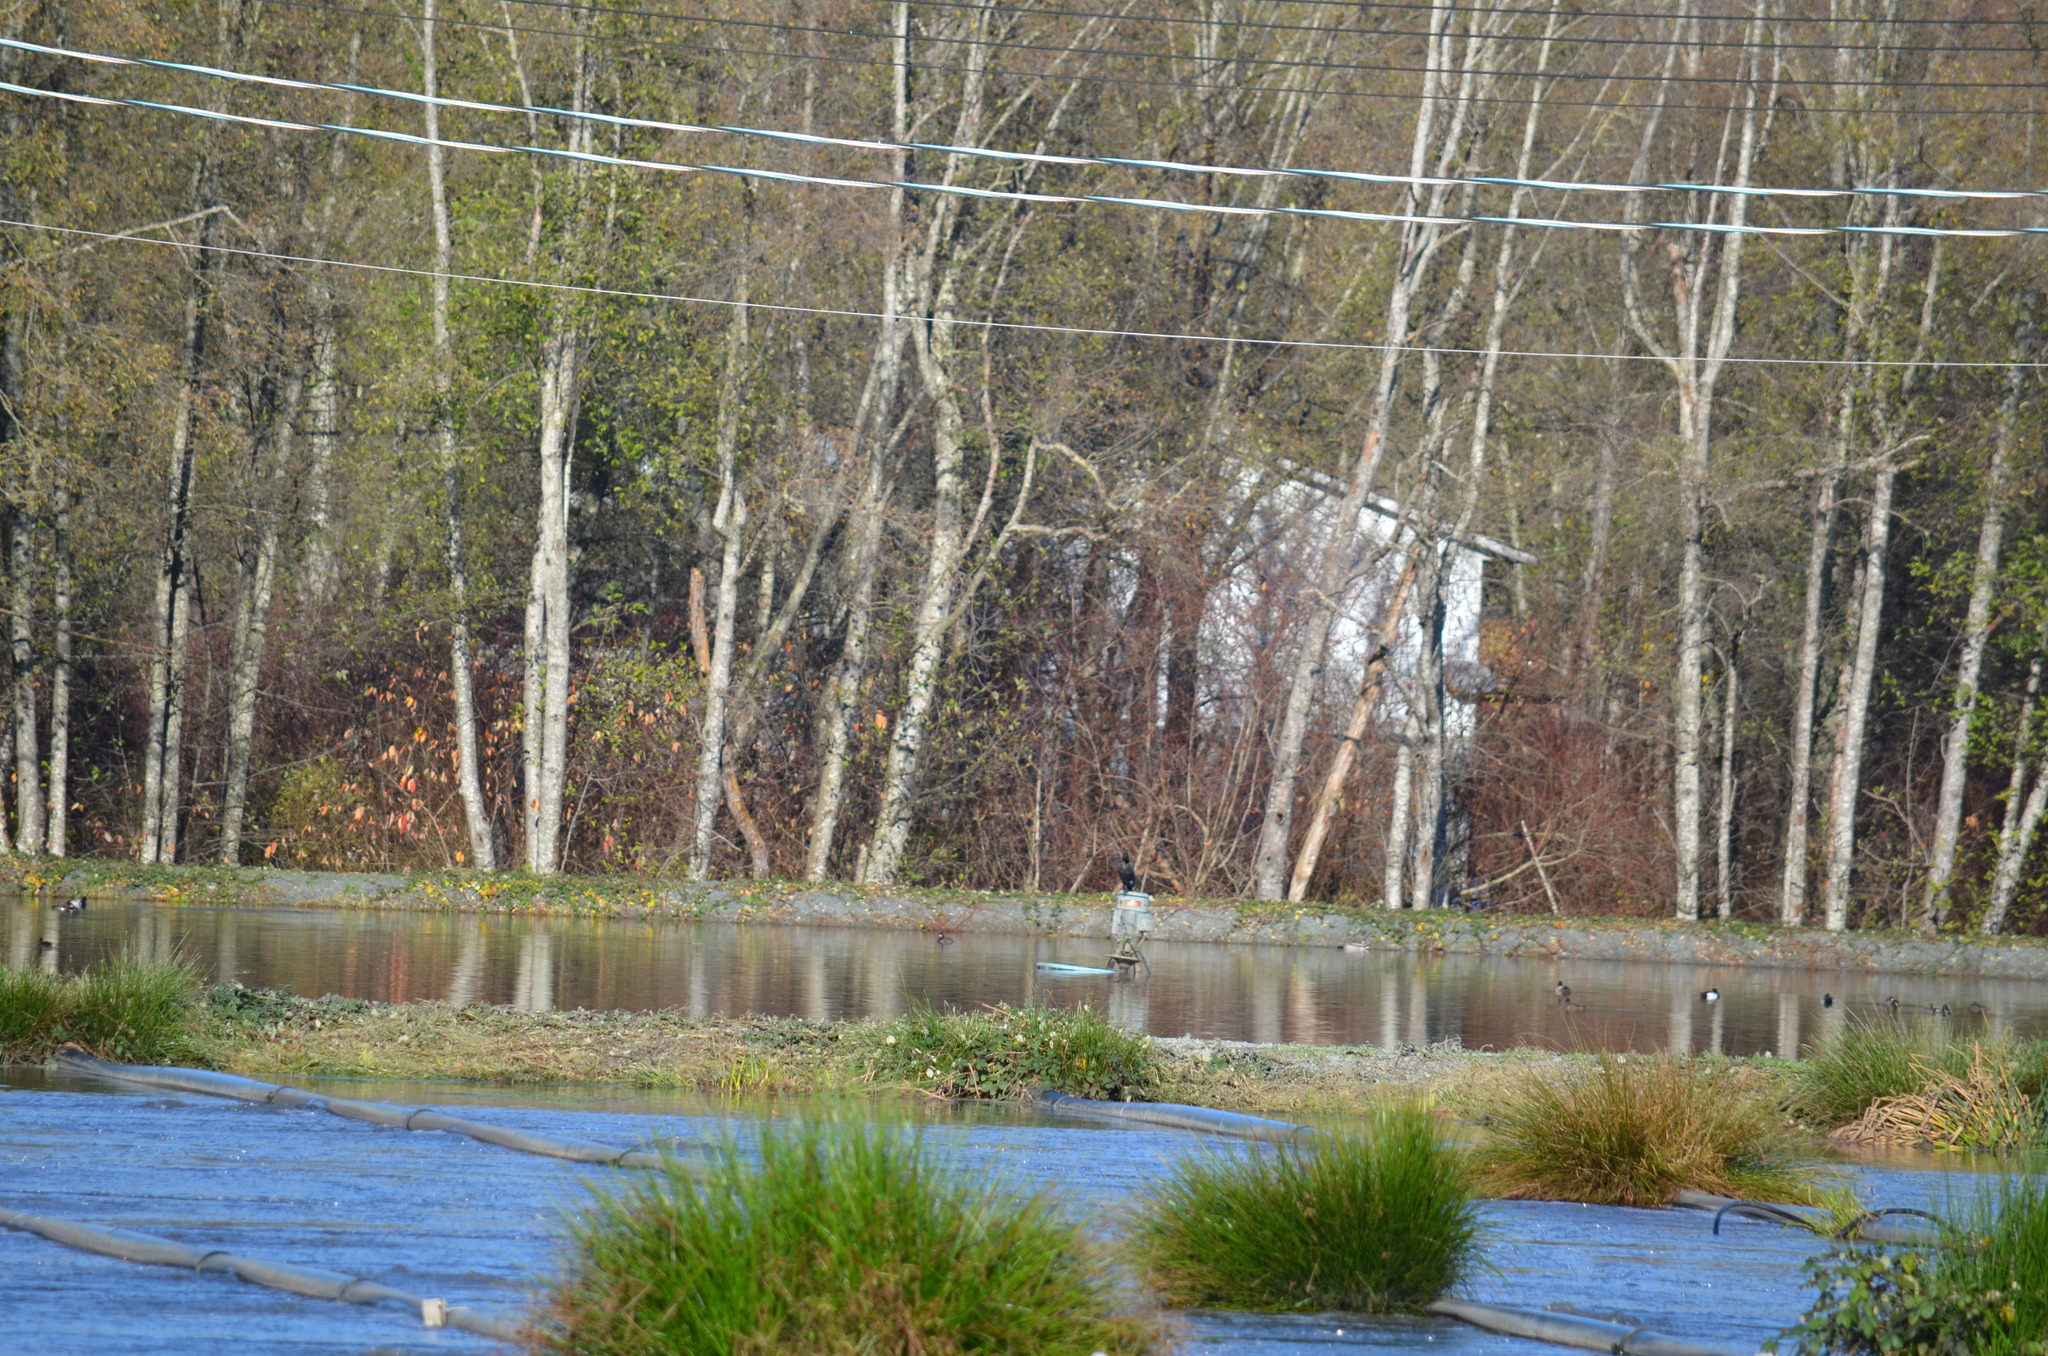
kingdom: Animalia
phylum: Chordata
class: Aves
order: Suliformes
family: Phalacrocoracidae
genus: Phalacrocorax
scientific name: Phalacrocorax pelagicus
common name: Pelagic cormorant
